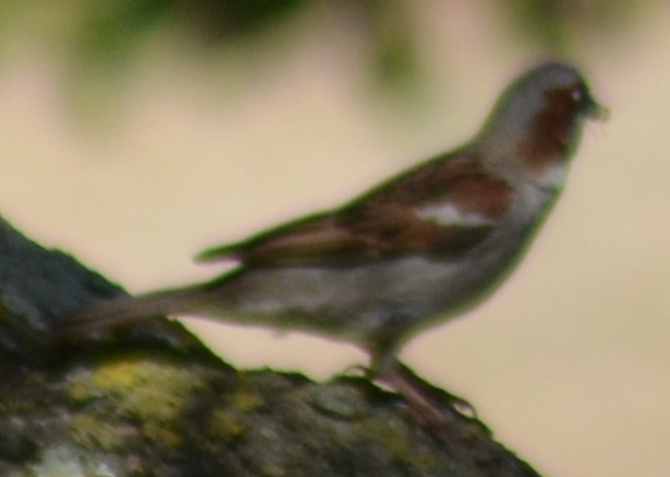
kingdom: Animalia
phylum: Chordata
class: Aves
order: Passeriformes
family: Passeridae
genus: Passer
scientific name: Passer domesticus
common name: House sparrow
